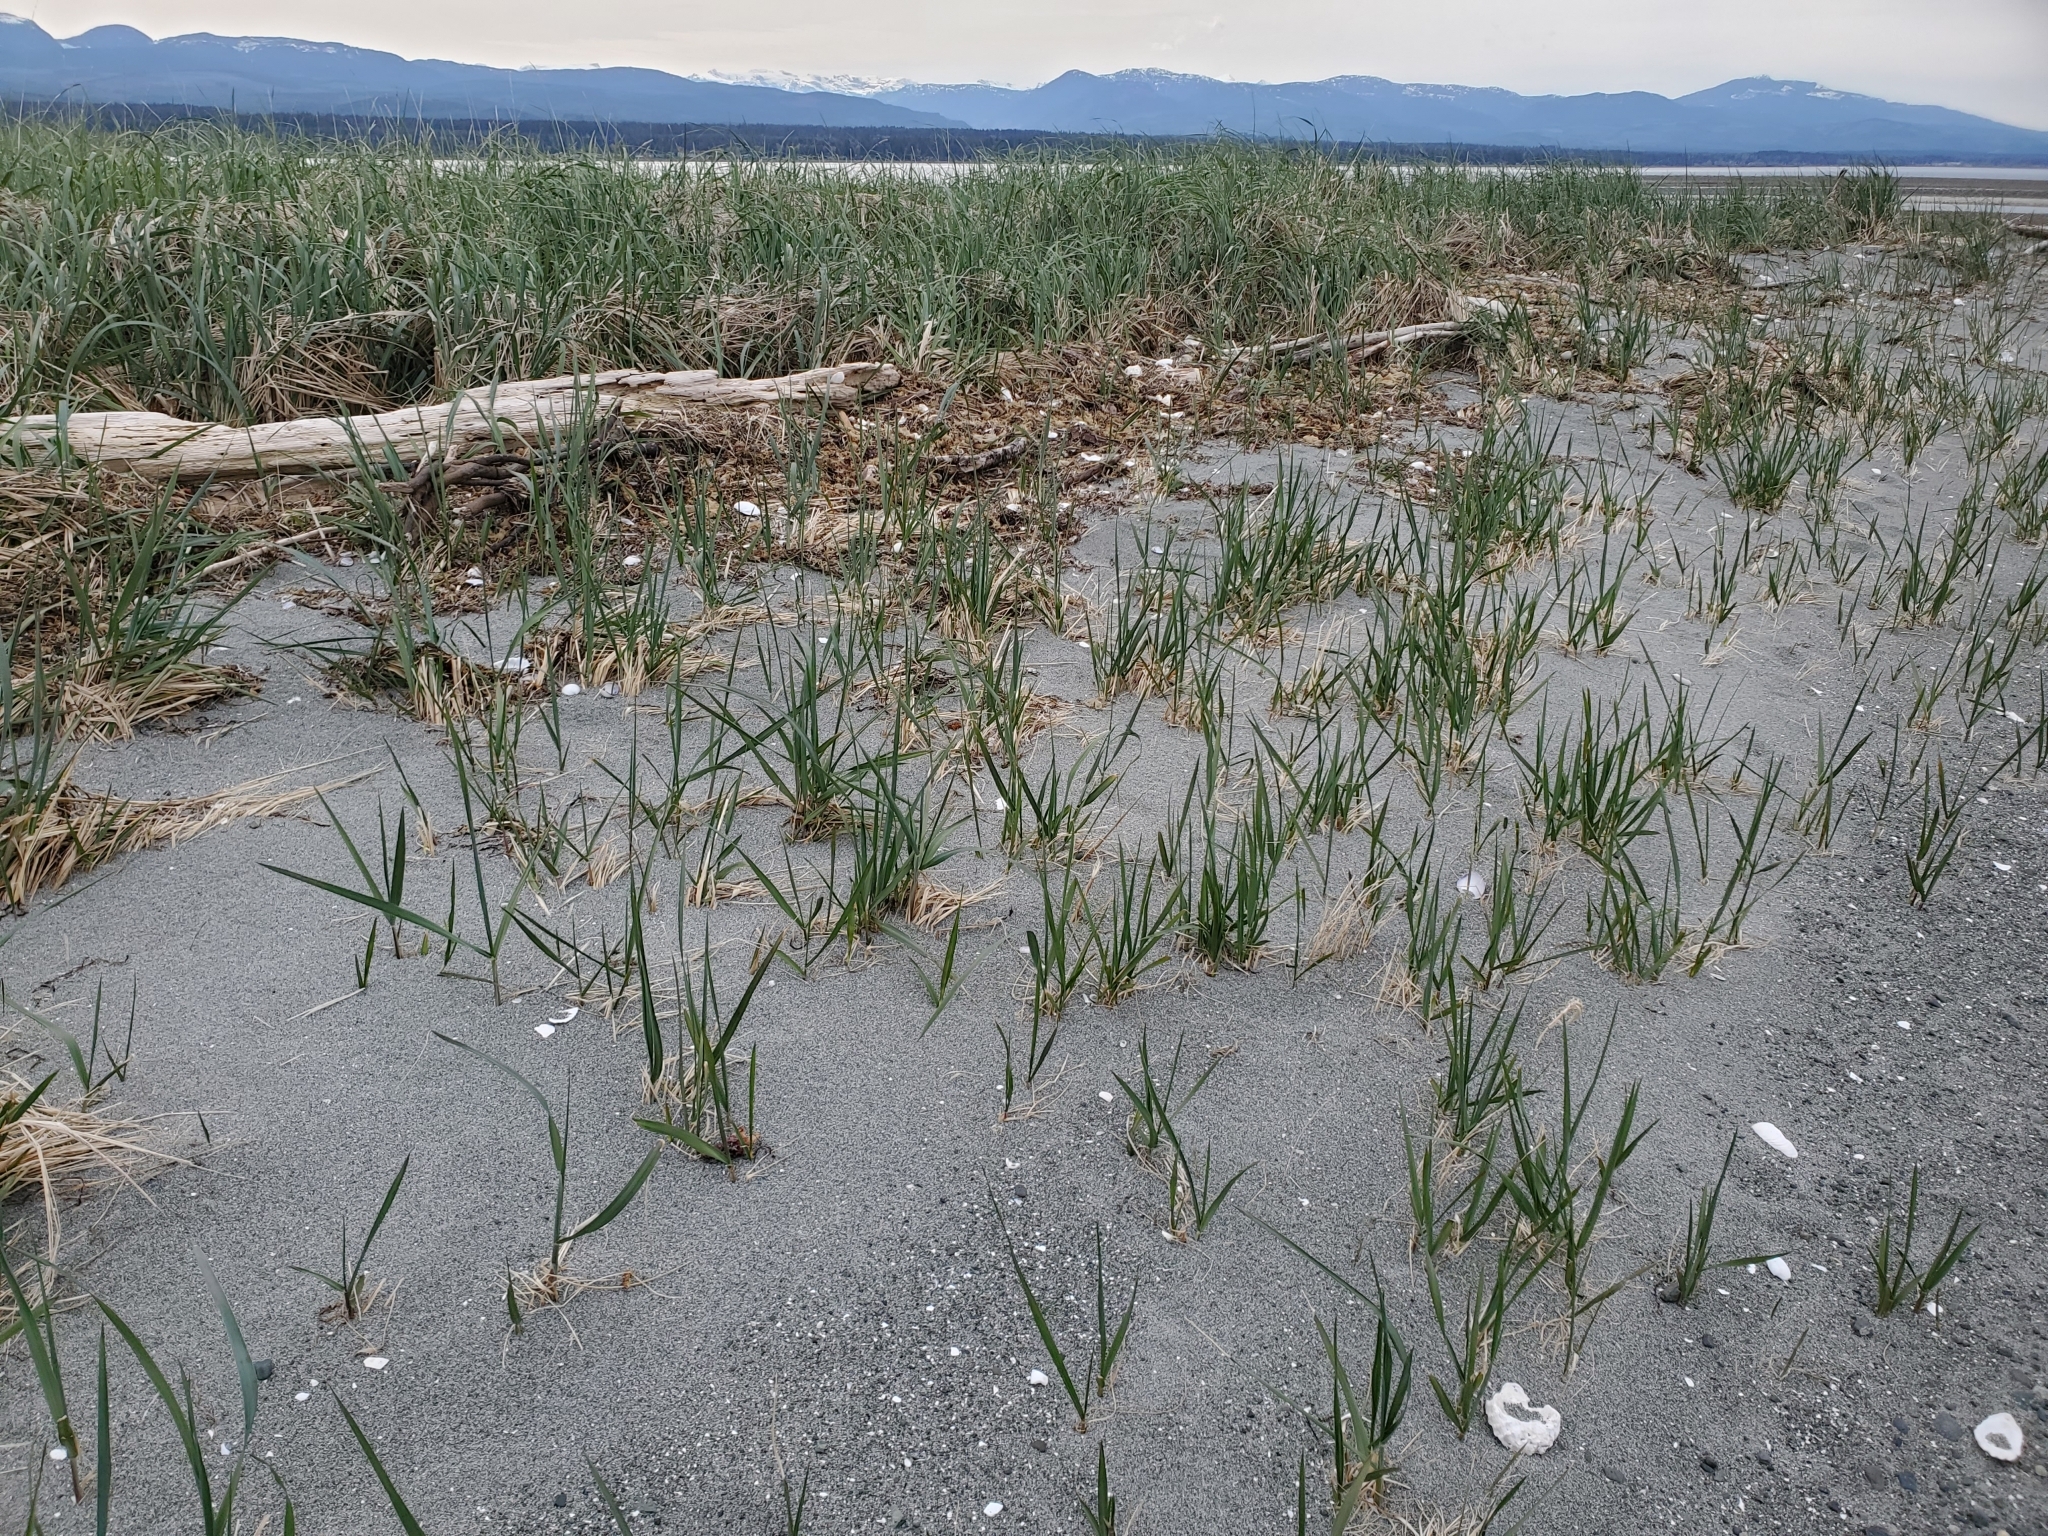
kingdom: Plantae
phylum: Tracheophyta
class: Liliopsida
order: Poales
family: Poaceae
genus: Leymus
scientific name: Leymus mollis
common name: American dune grass
